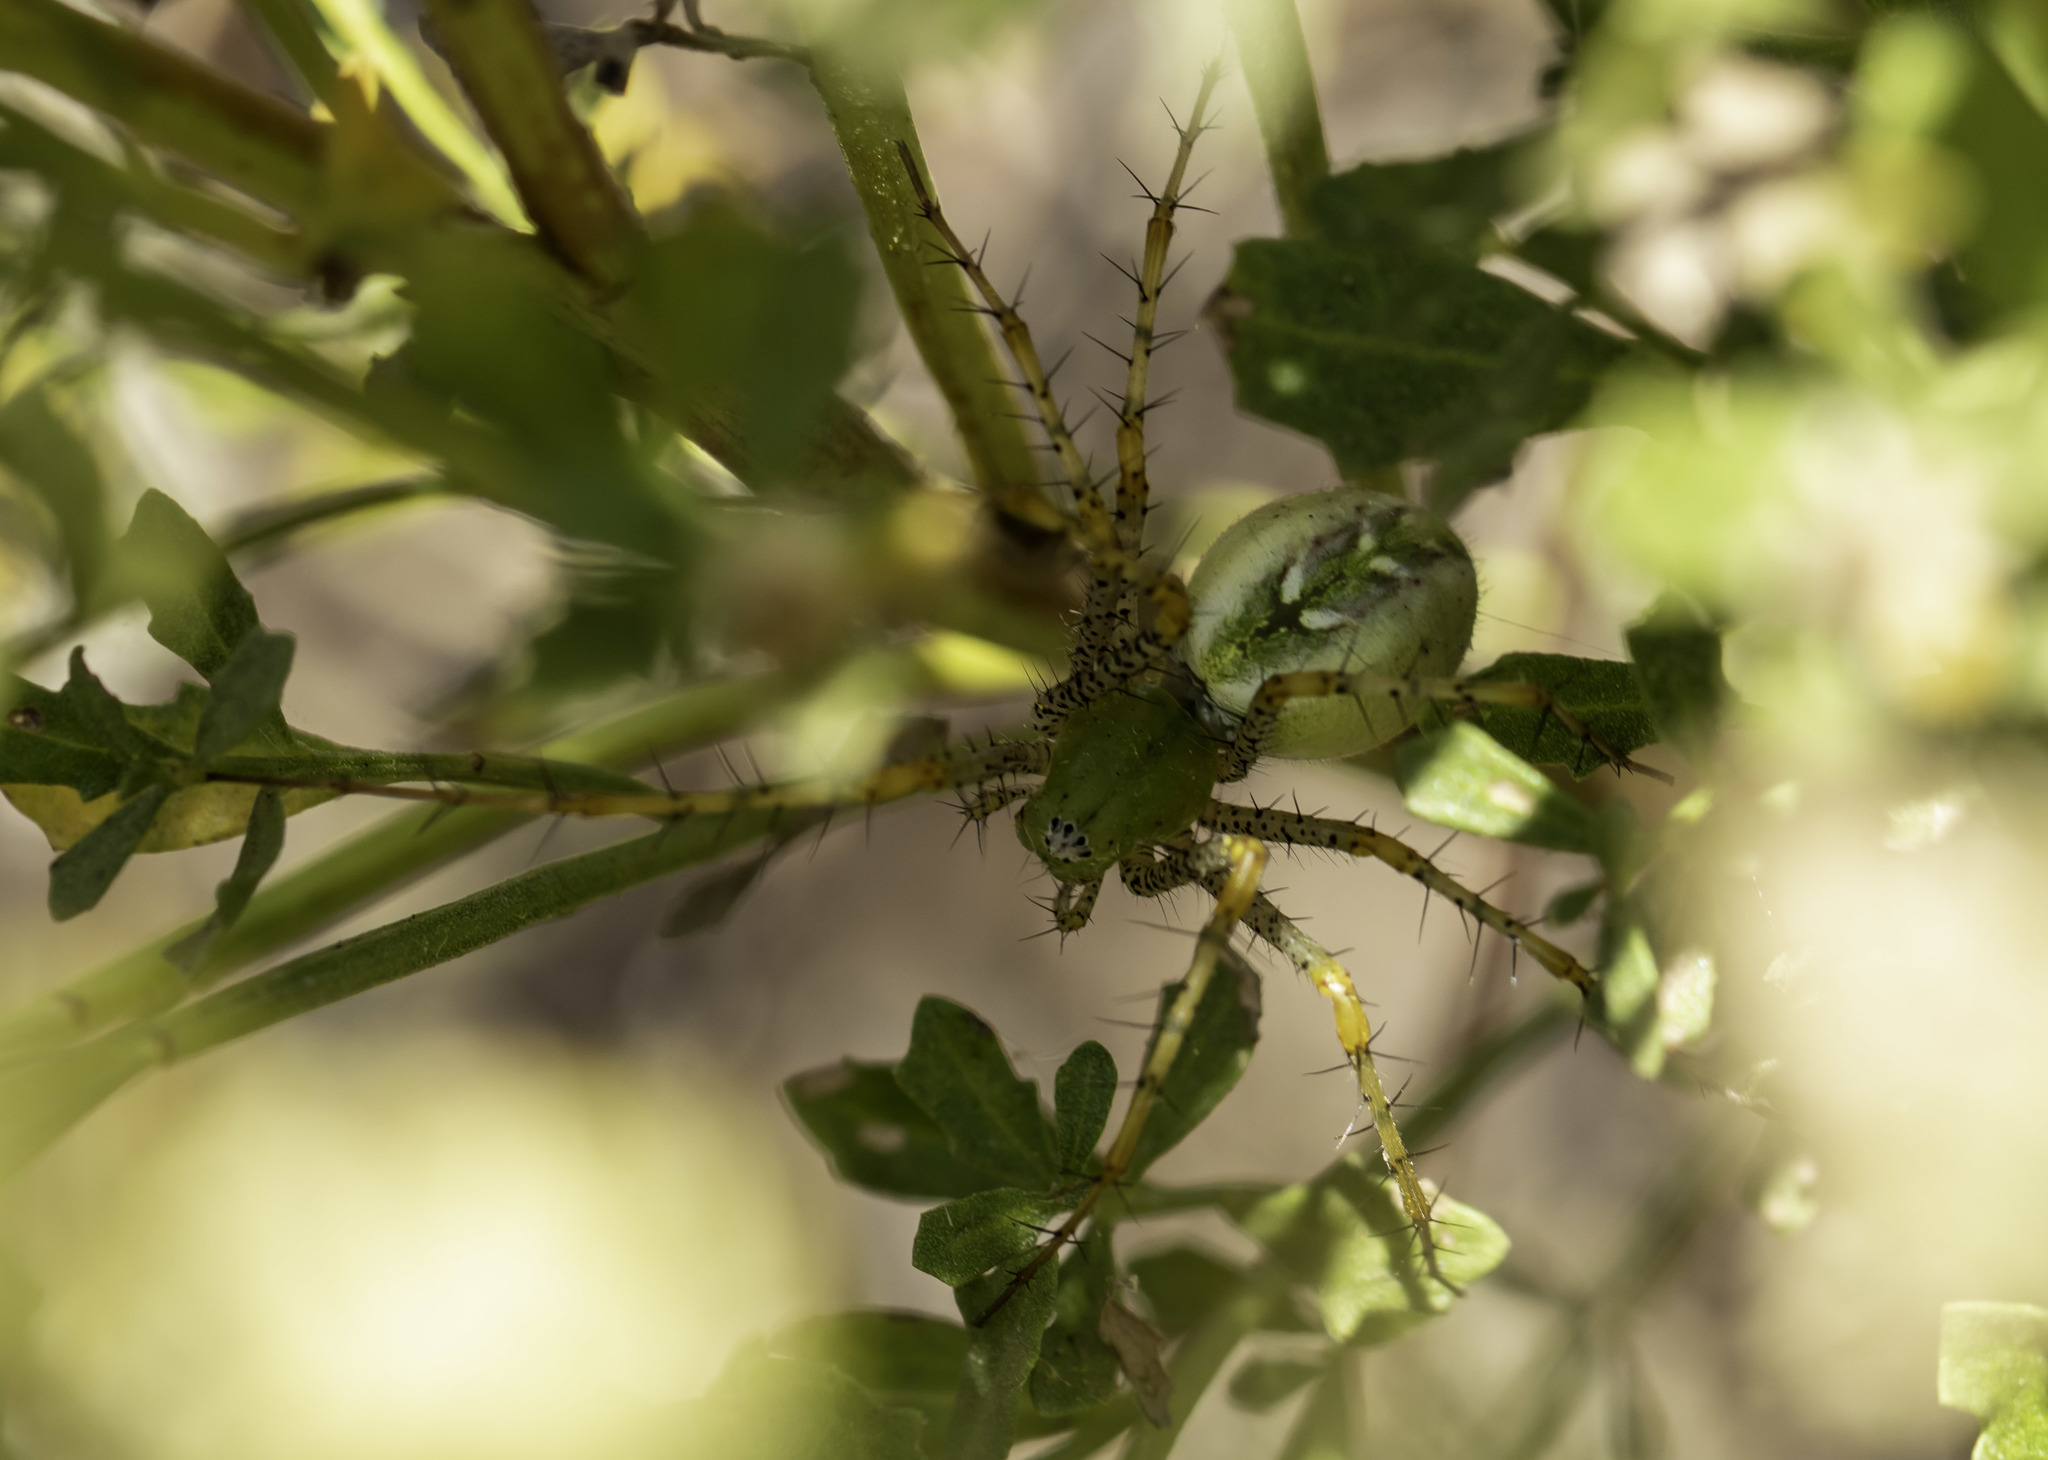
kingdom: Animalia
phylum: Arthropoda
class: Arachnida
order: Araneae
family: Oxyopidae
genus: Peucetia
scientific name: Peucetia viridans
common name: Lynx spiders
